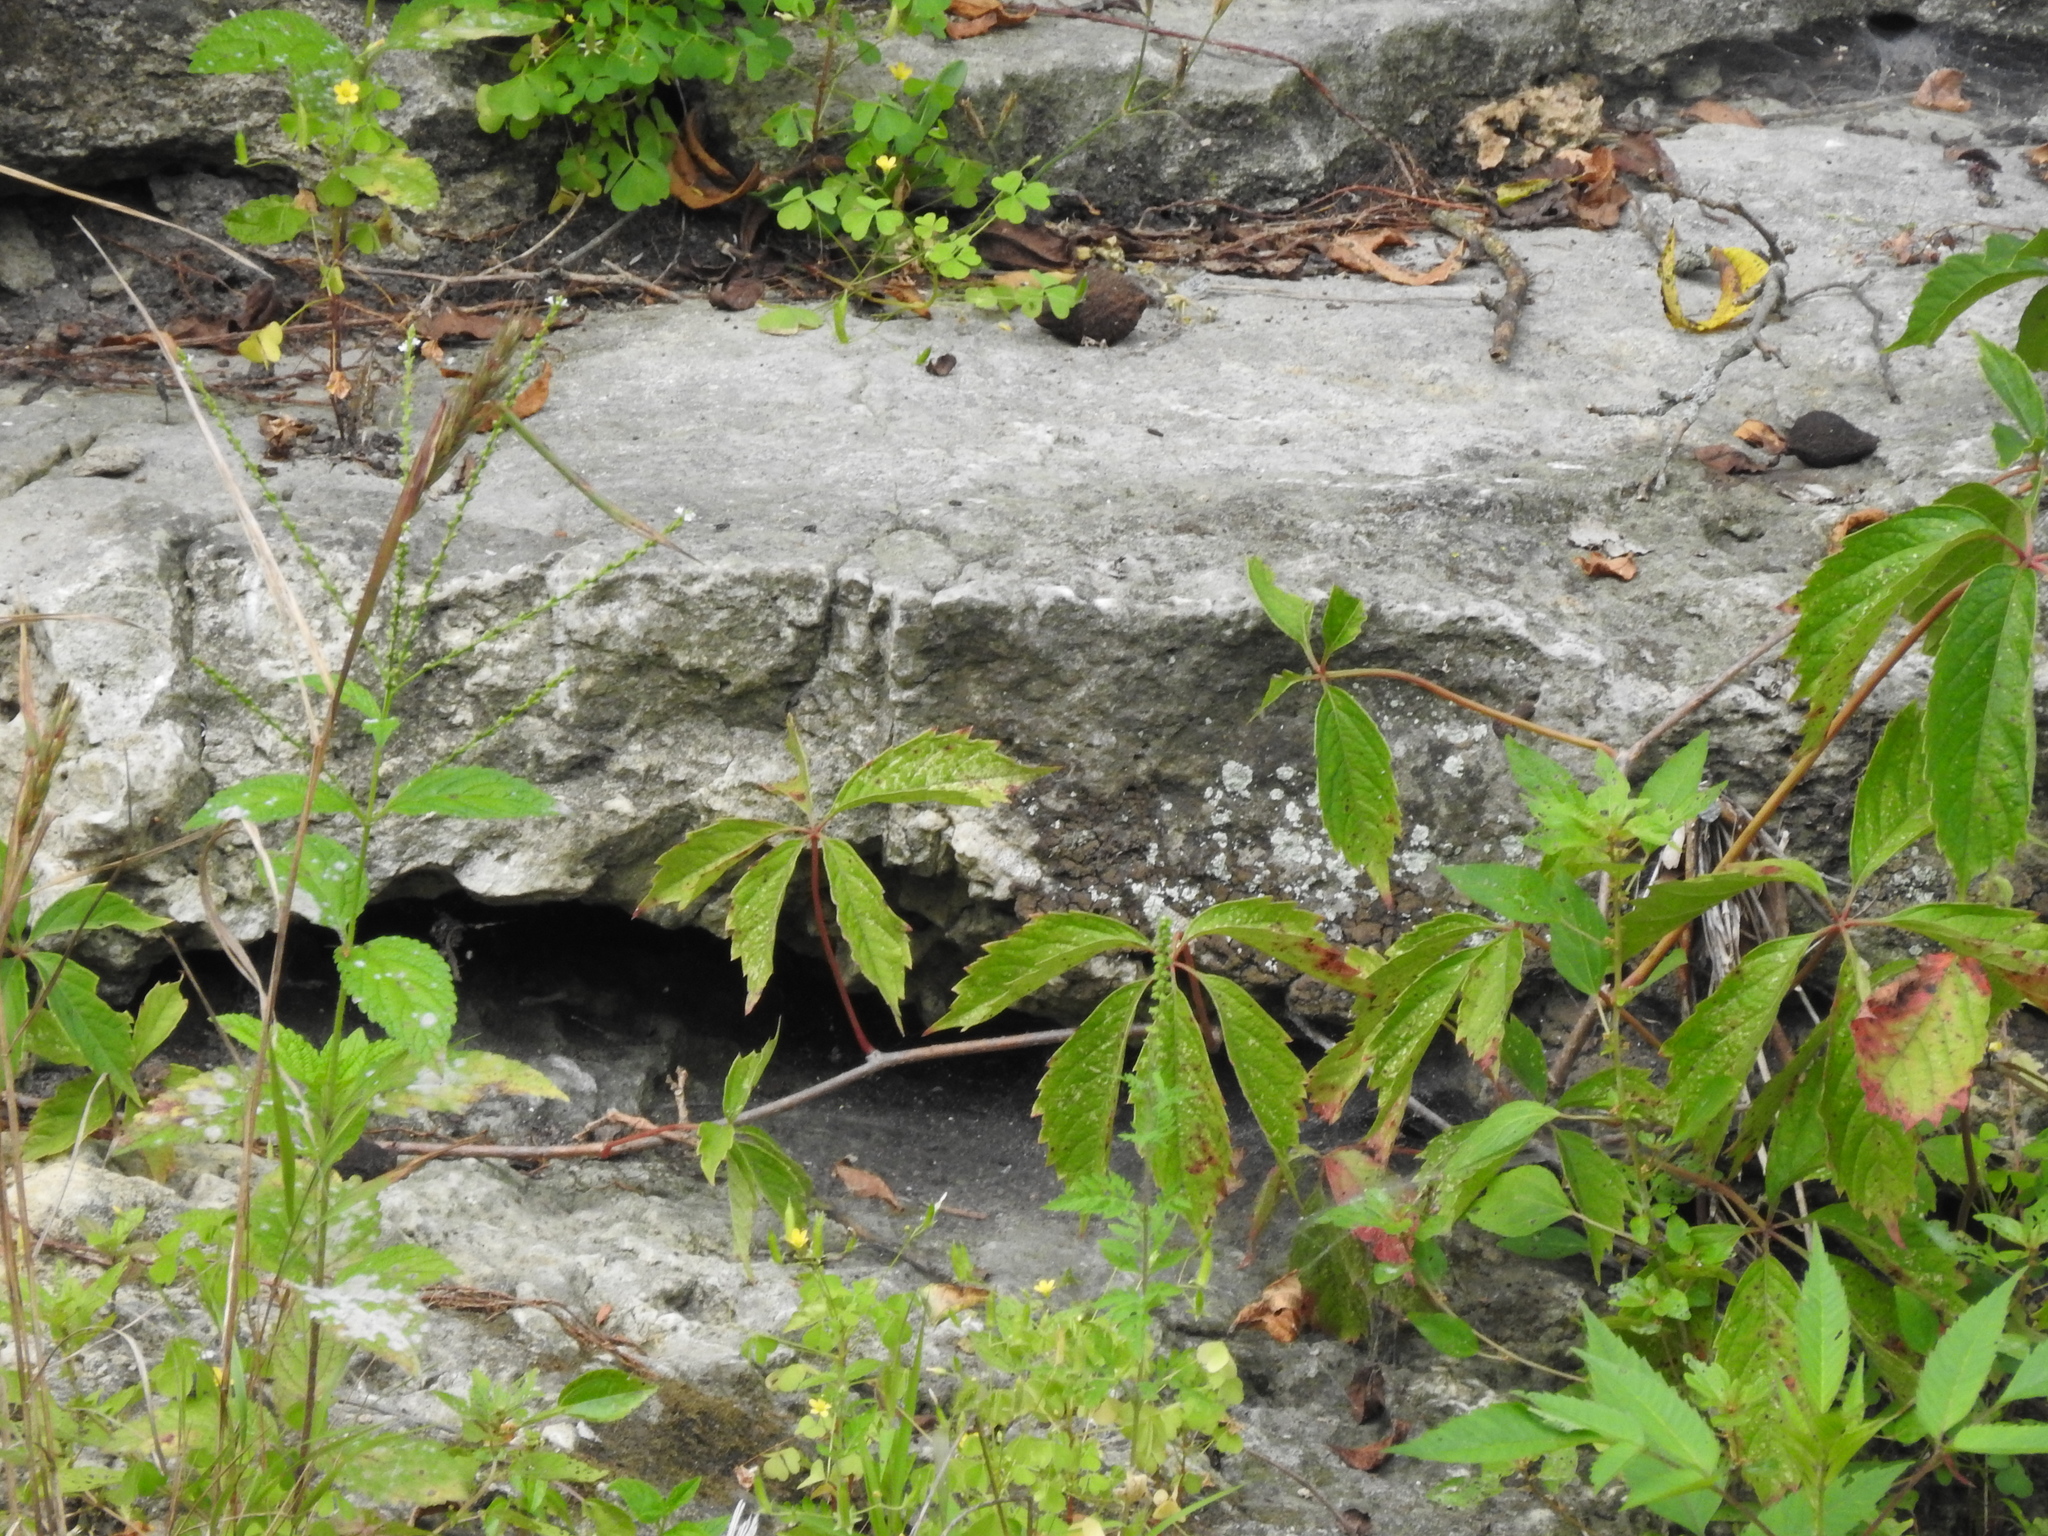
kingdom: Plantae
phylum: Tracheophyta
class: Magnoliopsida
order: Lamiales
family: Verbenaceae
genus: Verbena
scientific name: Verbena urticifolia
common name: Nettle-leaved vervain
